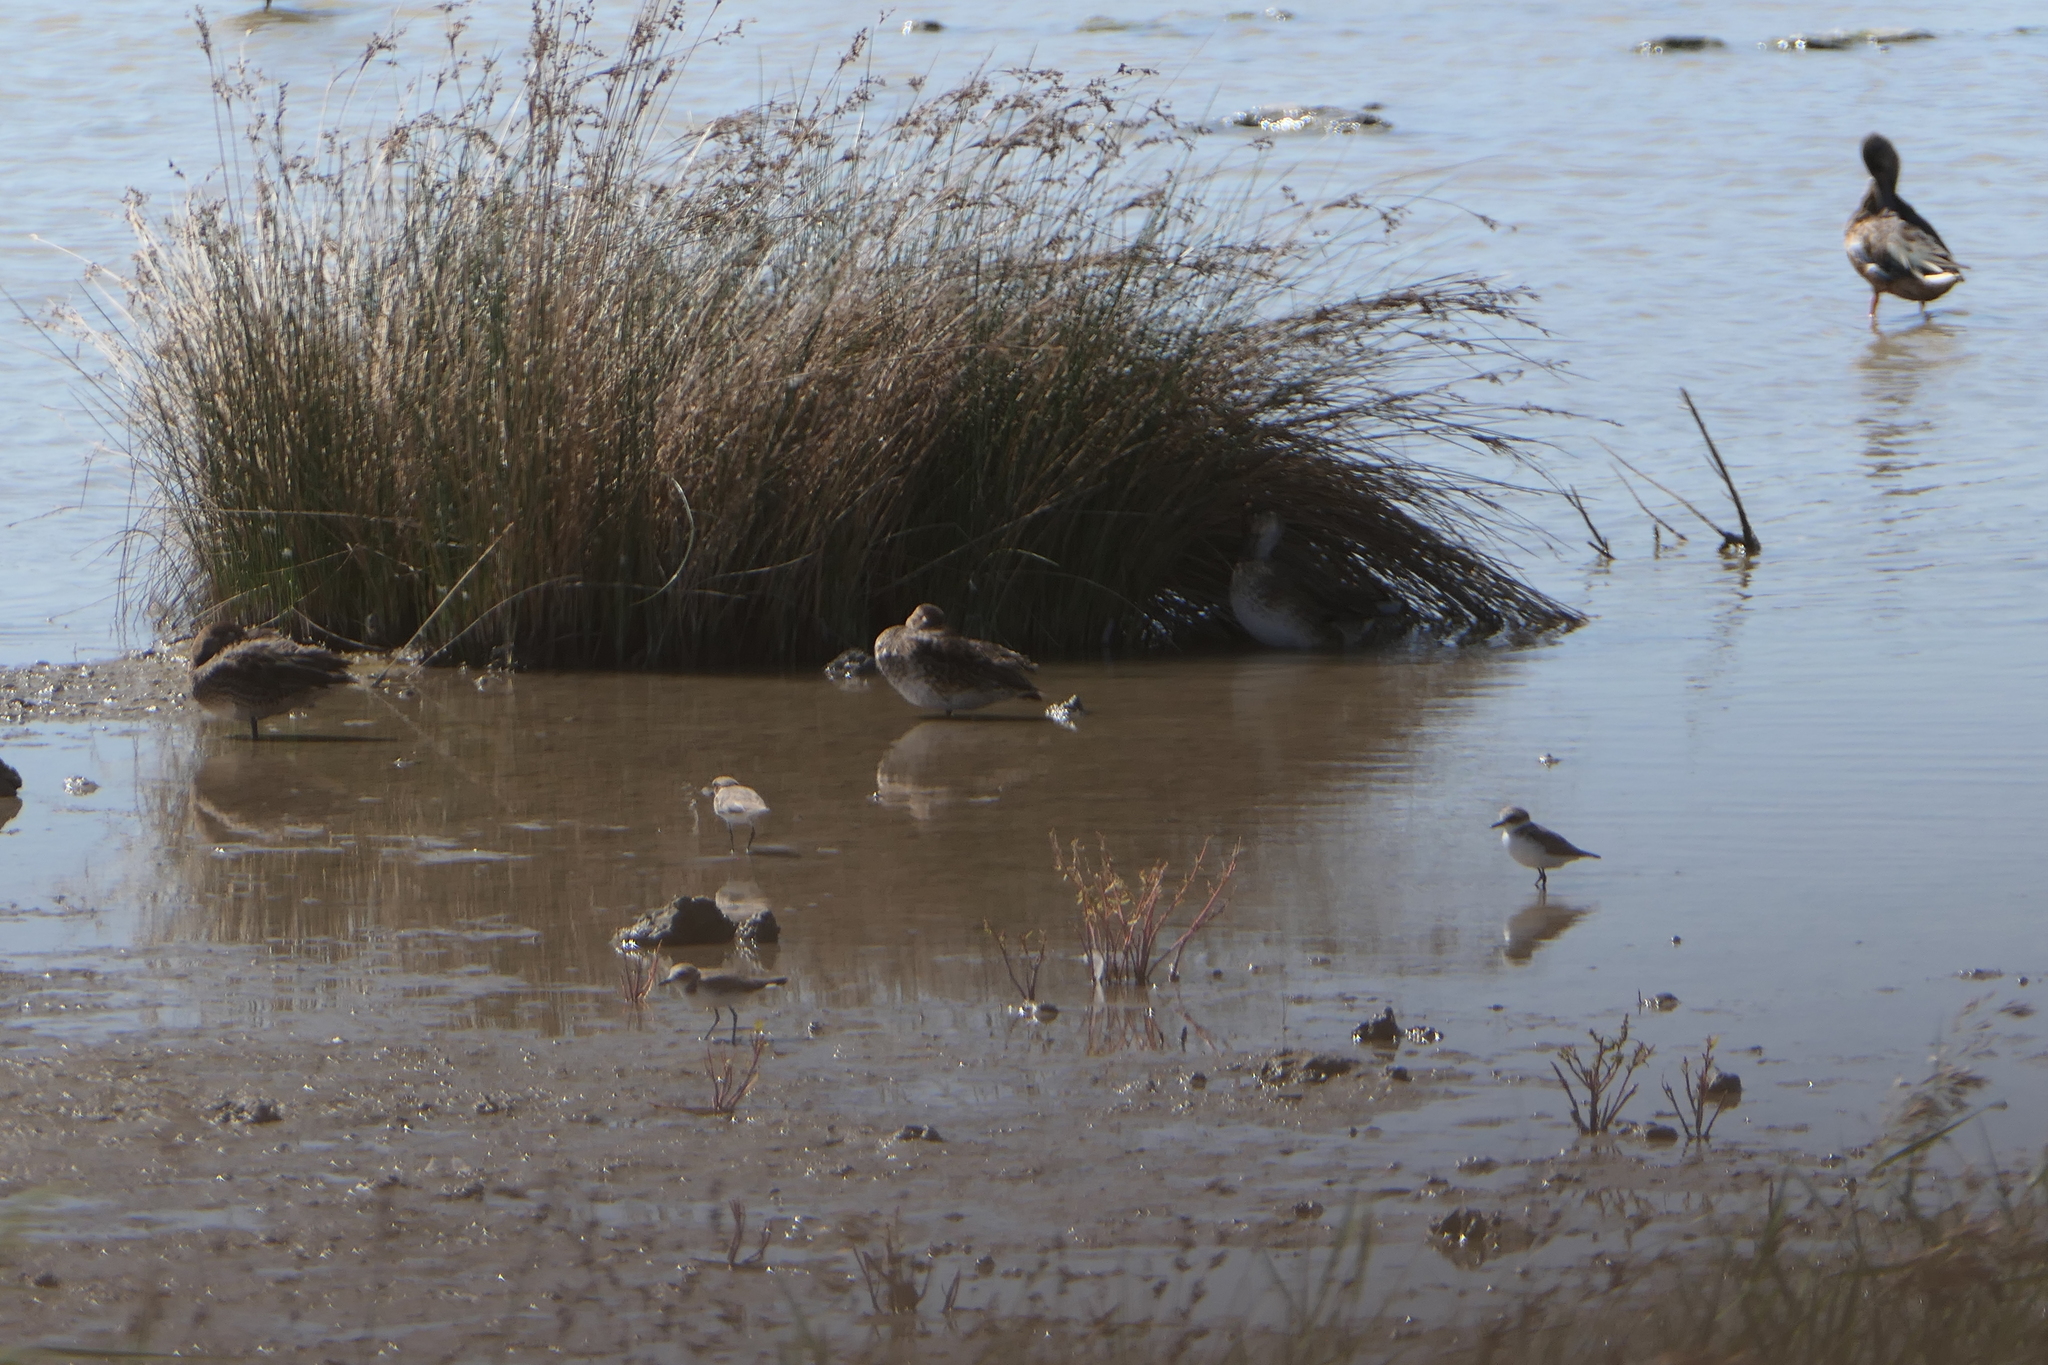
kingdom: Animalia
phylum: Chordata
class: Aves
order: Anseriformes
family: Anatidae
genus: Anas
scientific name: Anas crecca
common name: Eurasian teal
